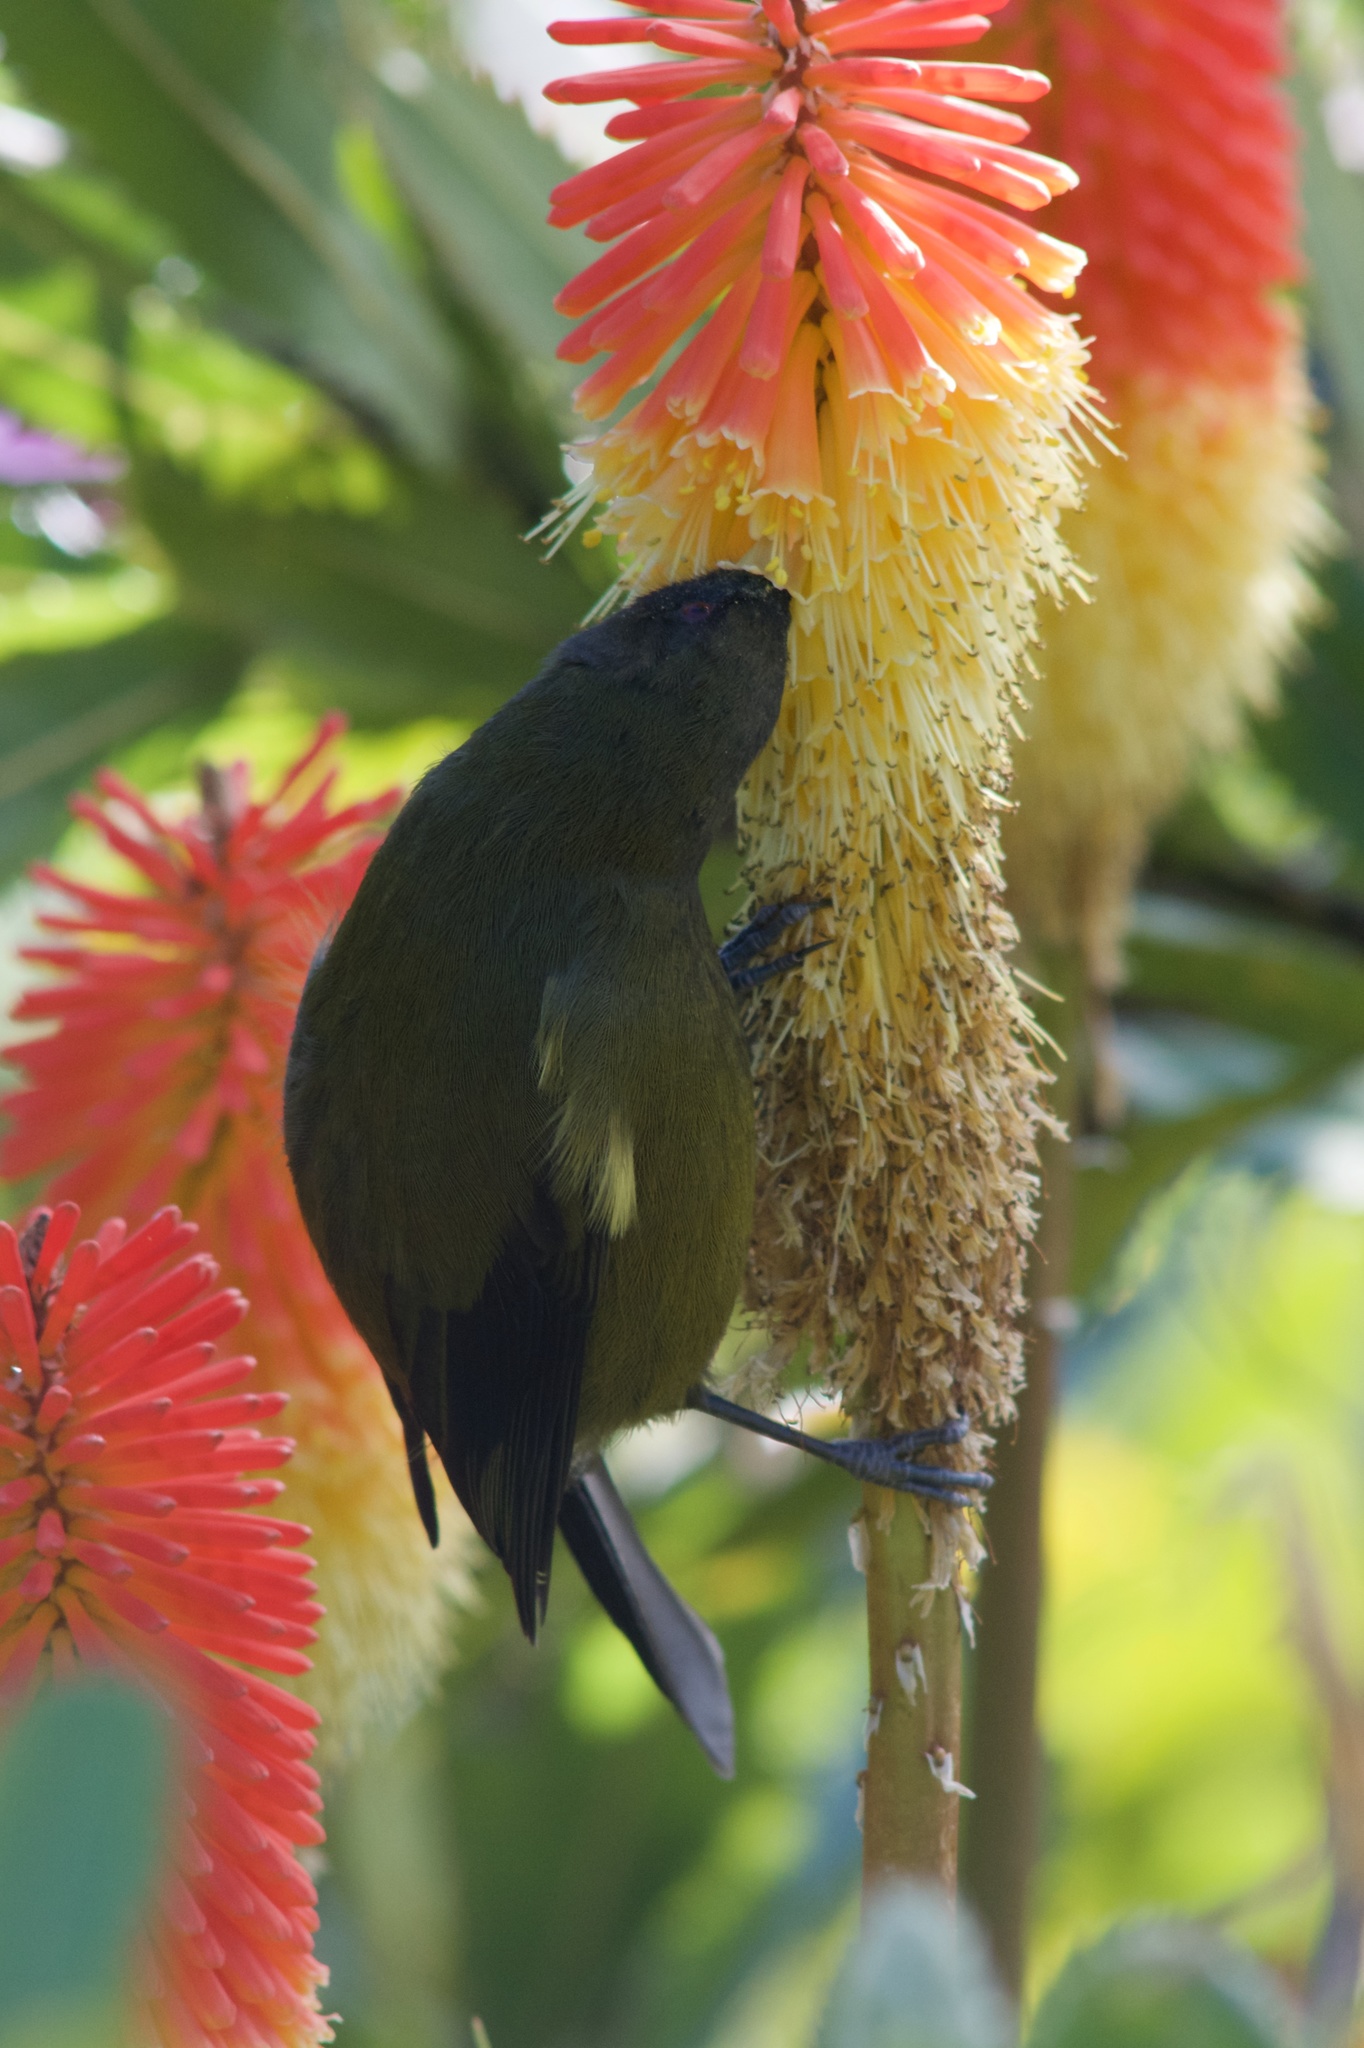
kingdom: Animalia
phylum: Chordata
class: Aves
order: Passeriformes
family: Meliphagidae
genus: Anthornis
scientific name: Anthornis melanura
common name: New zealand bellbird
